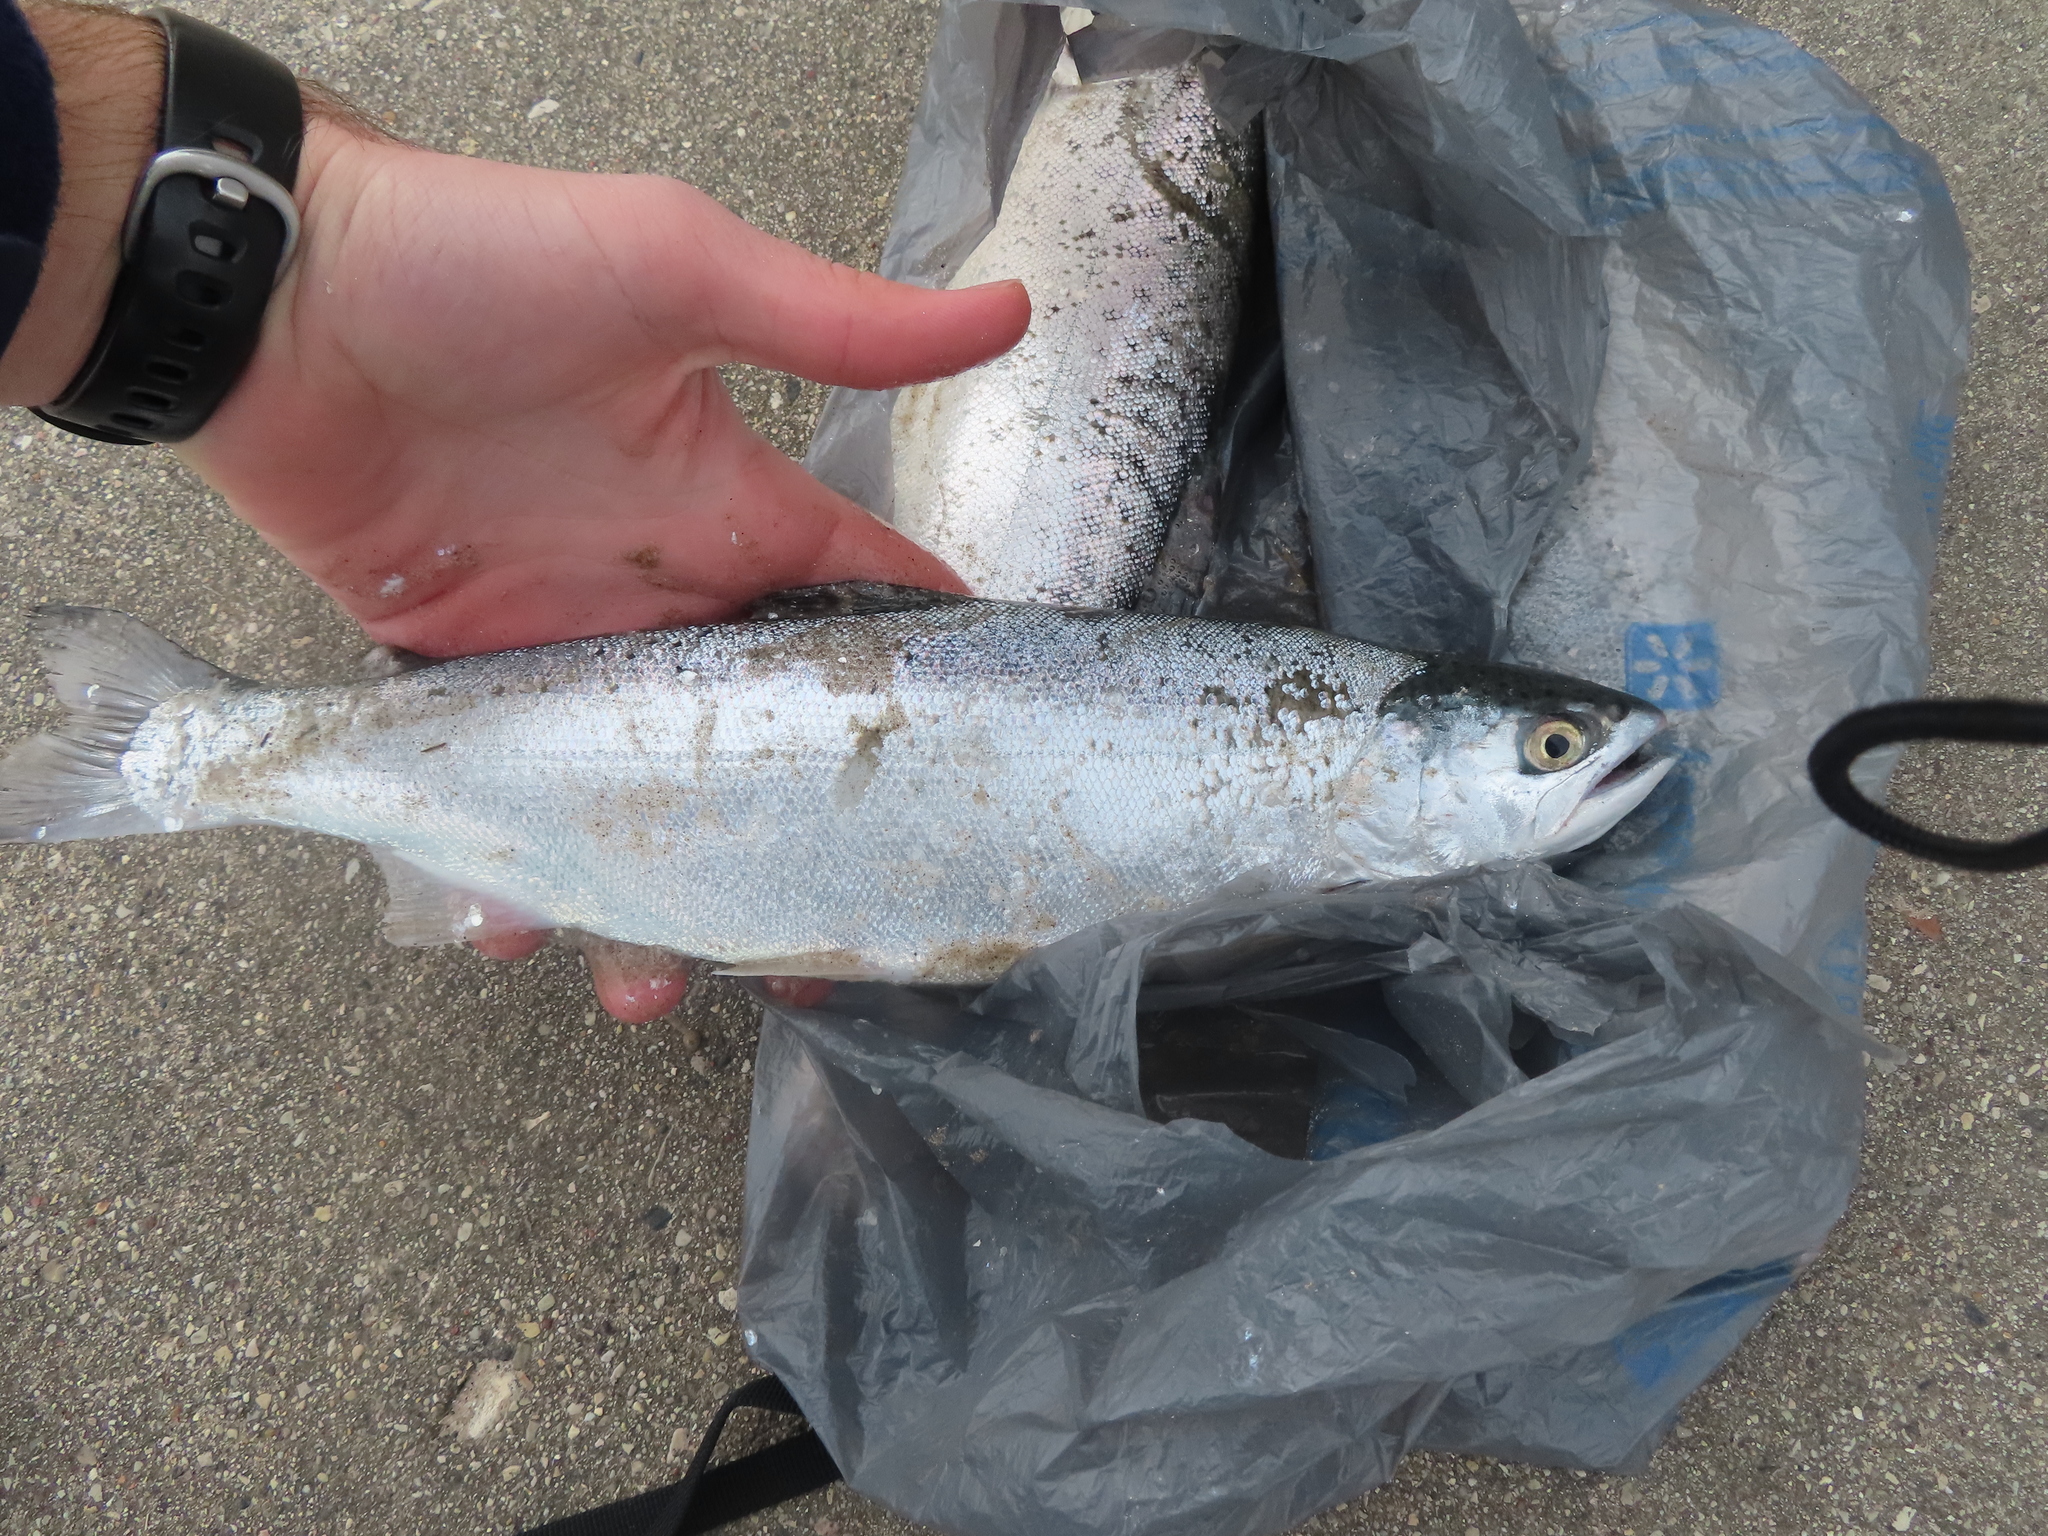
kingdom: Animalia
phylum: Chordata
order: Salmoniformes
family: Salmonidae
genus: Oncorhynchus
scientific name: Oncorhynchus kisutch
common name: Coho salmon
